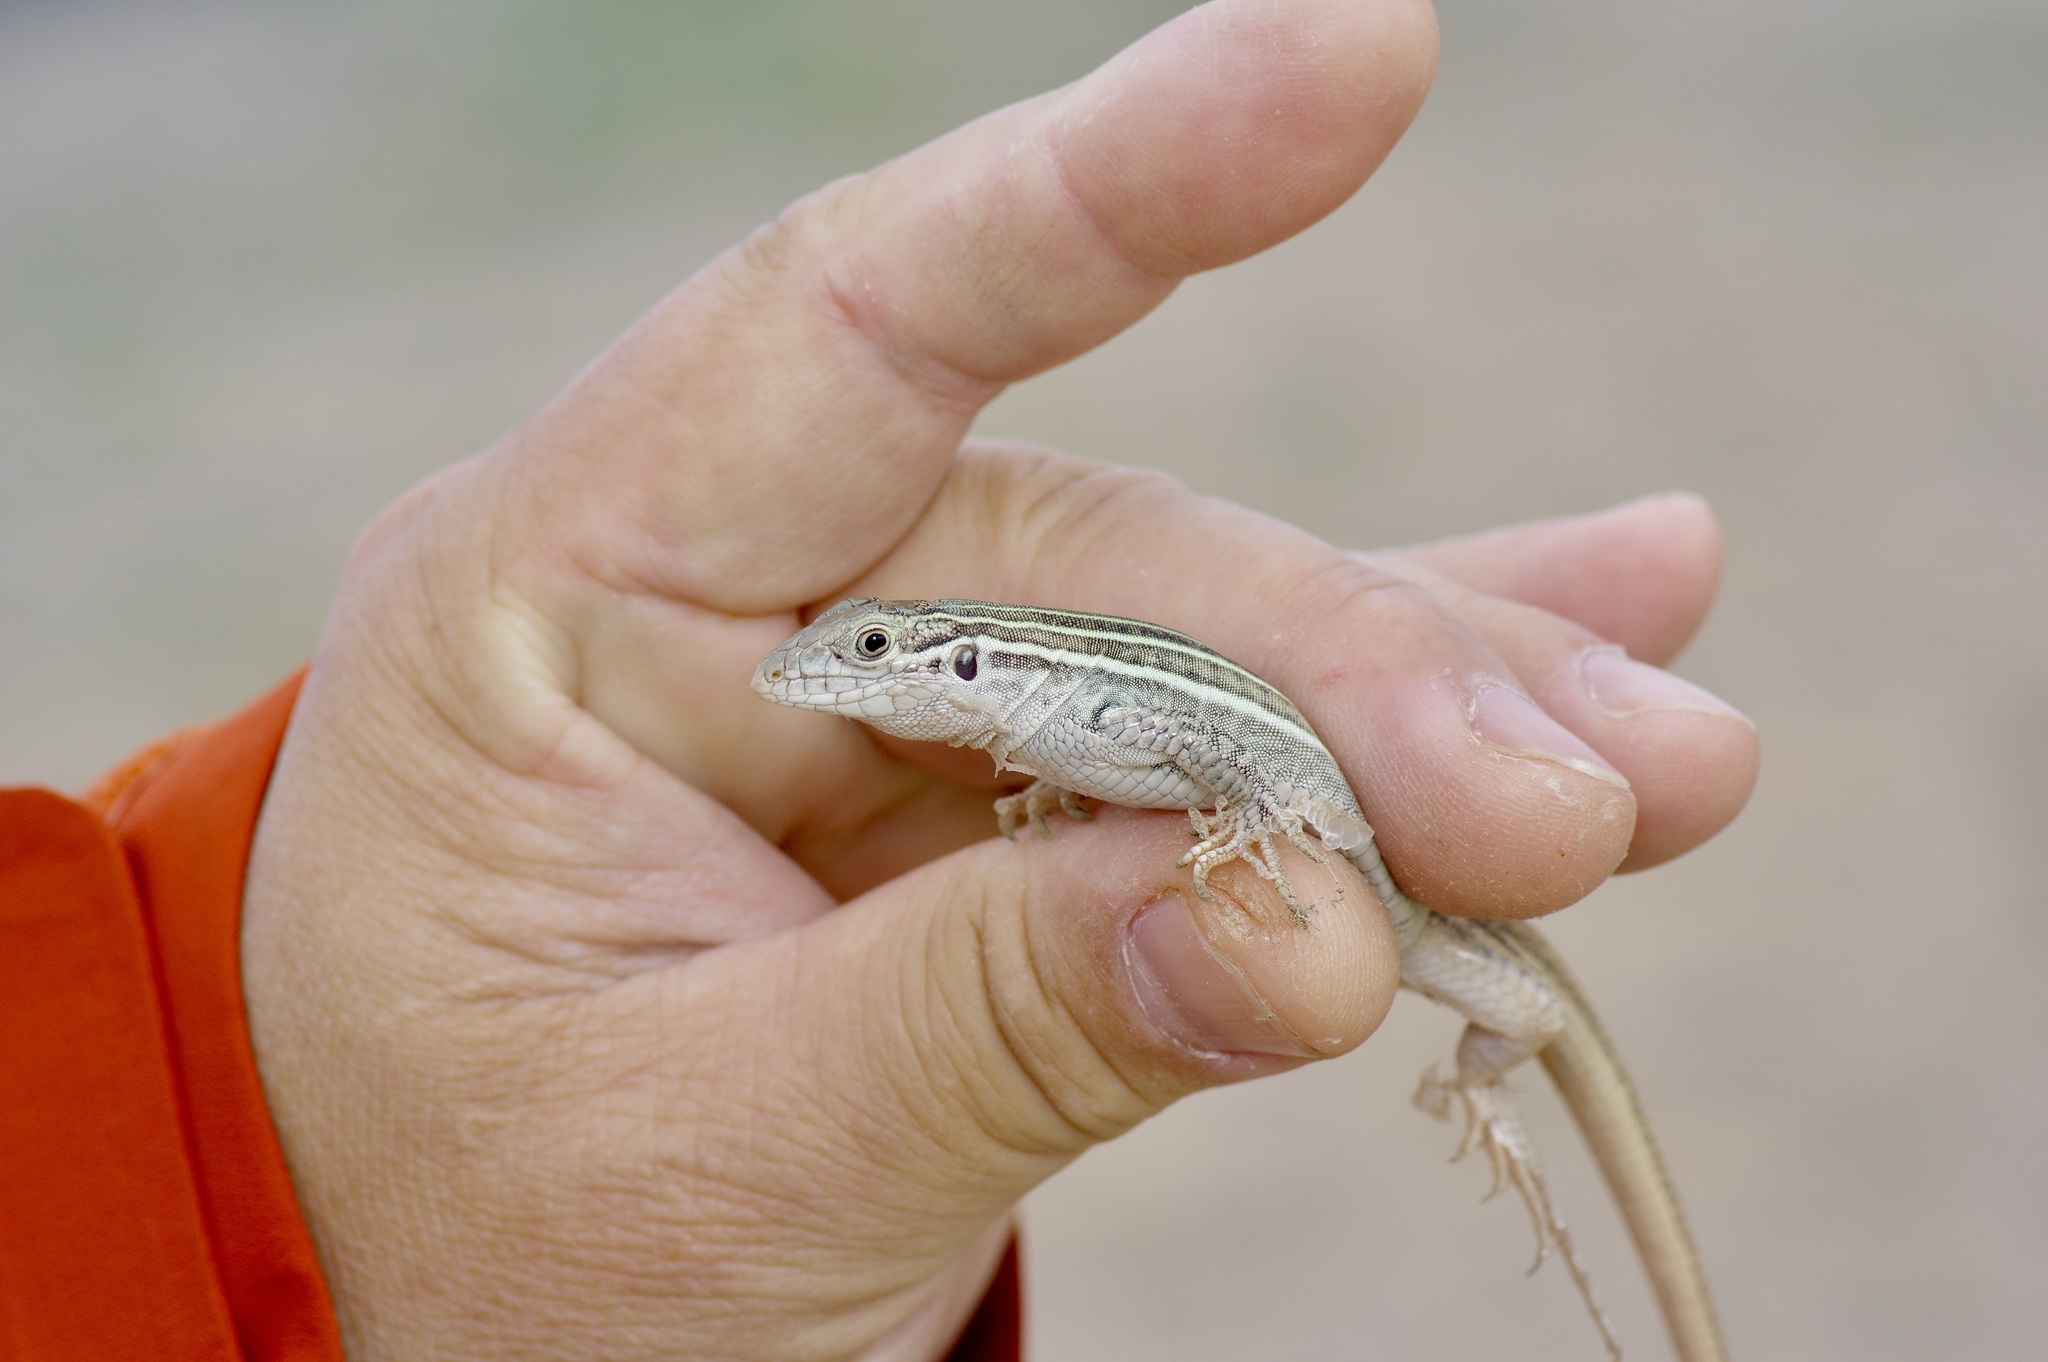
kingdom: Animalia
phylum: Chordata
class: Squamata
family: Teiidae
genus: Aspidoscelis
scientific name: Aspidoscelis gularis
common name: Eastern spotted whiptail
